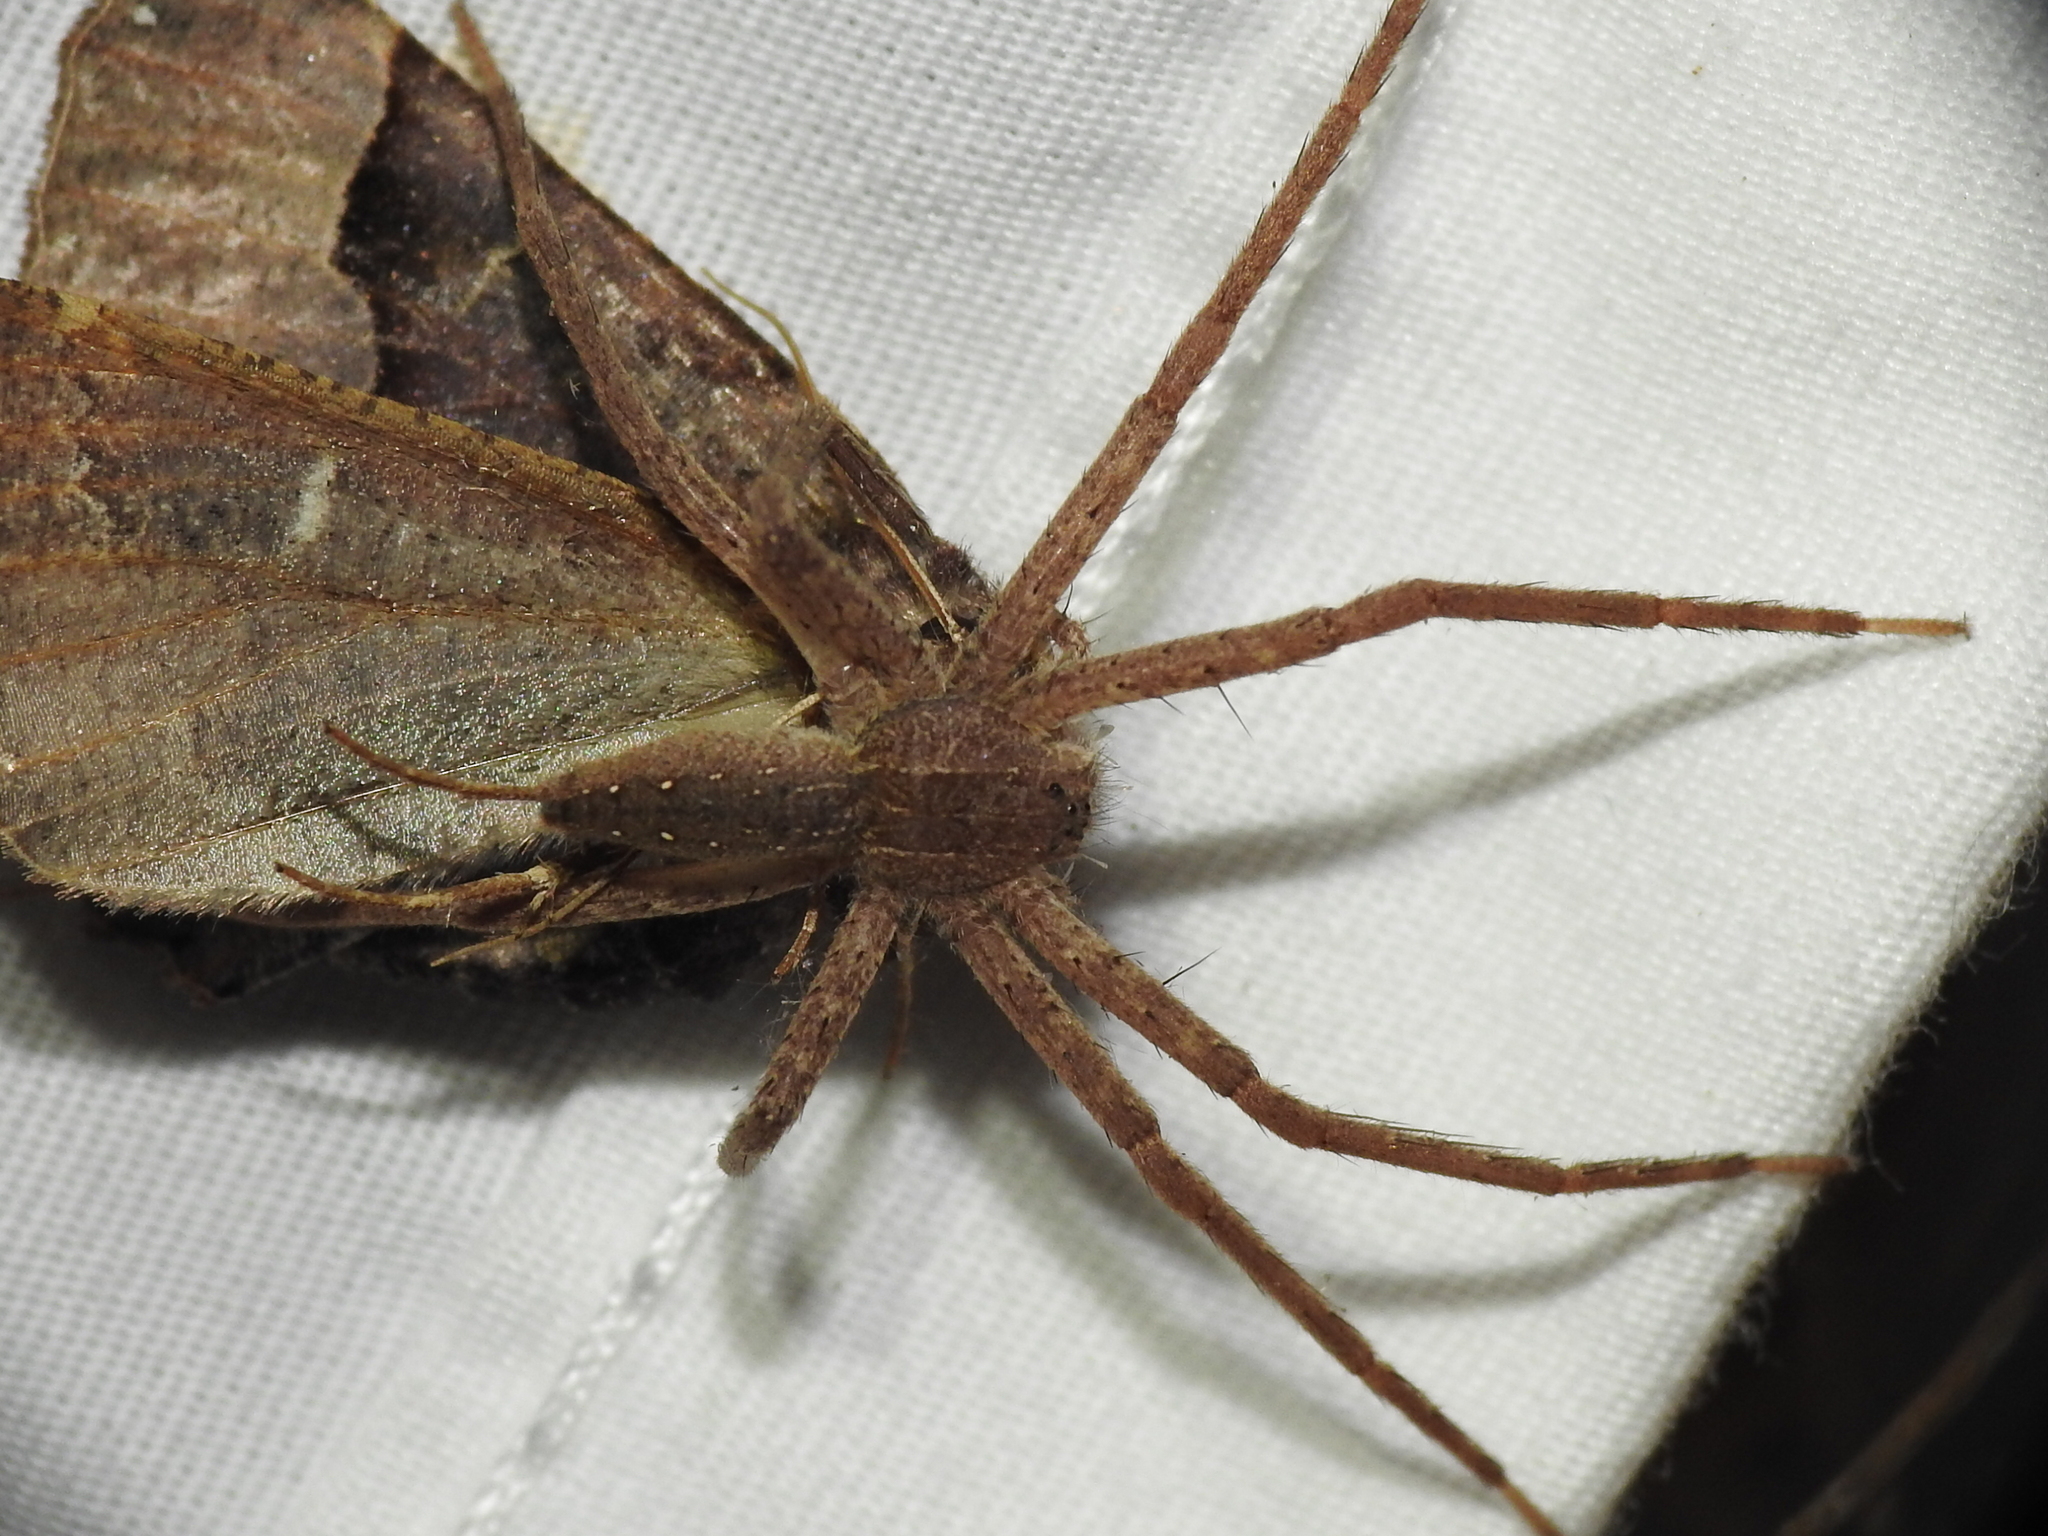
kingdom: Animalia
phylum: Arthropoda
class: Arachnida
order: Araneae
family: Pisauridae
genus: Pisaurina
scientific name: Pisaurina mira
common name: American nursery web spider
